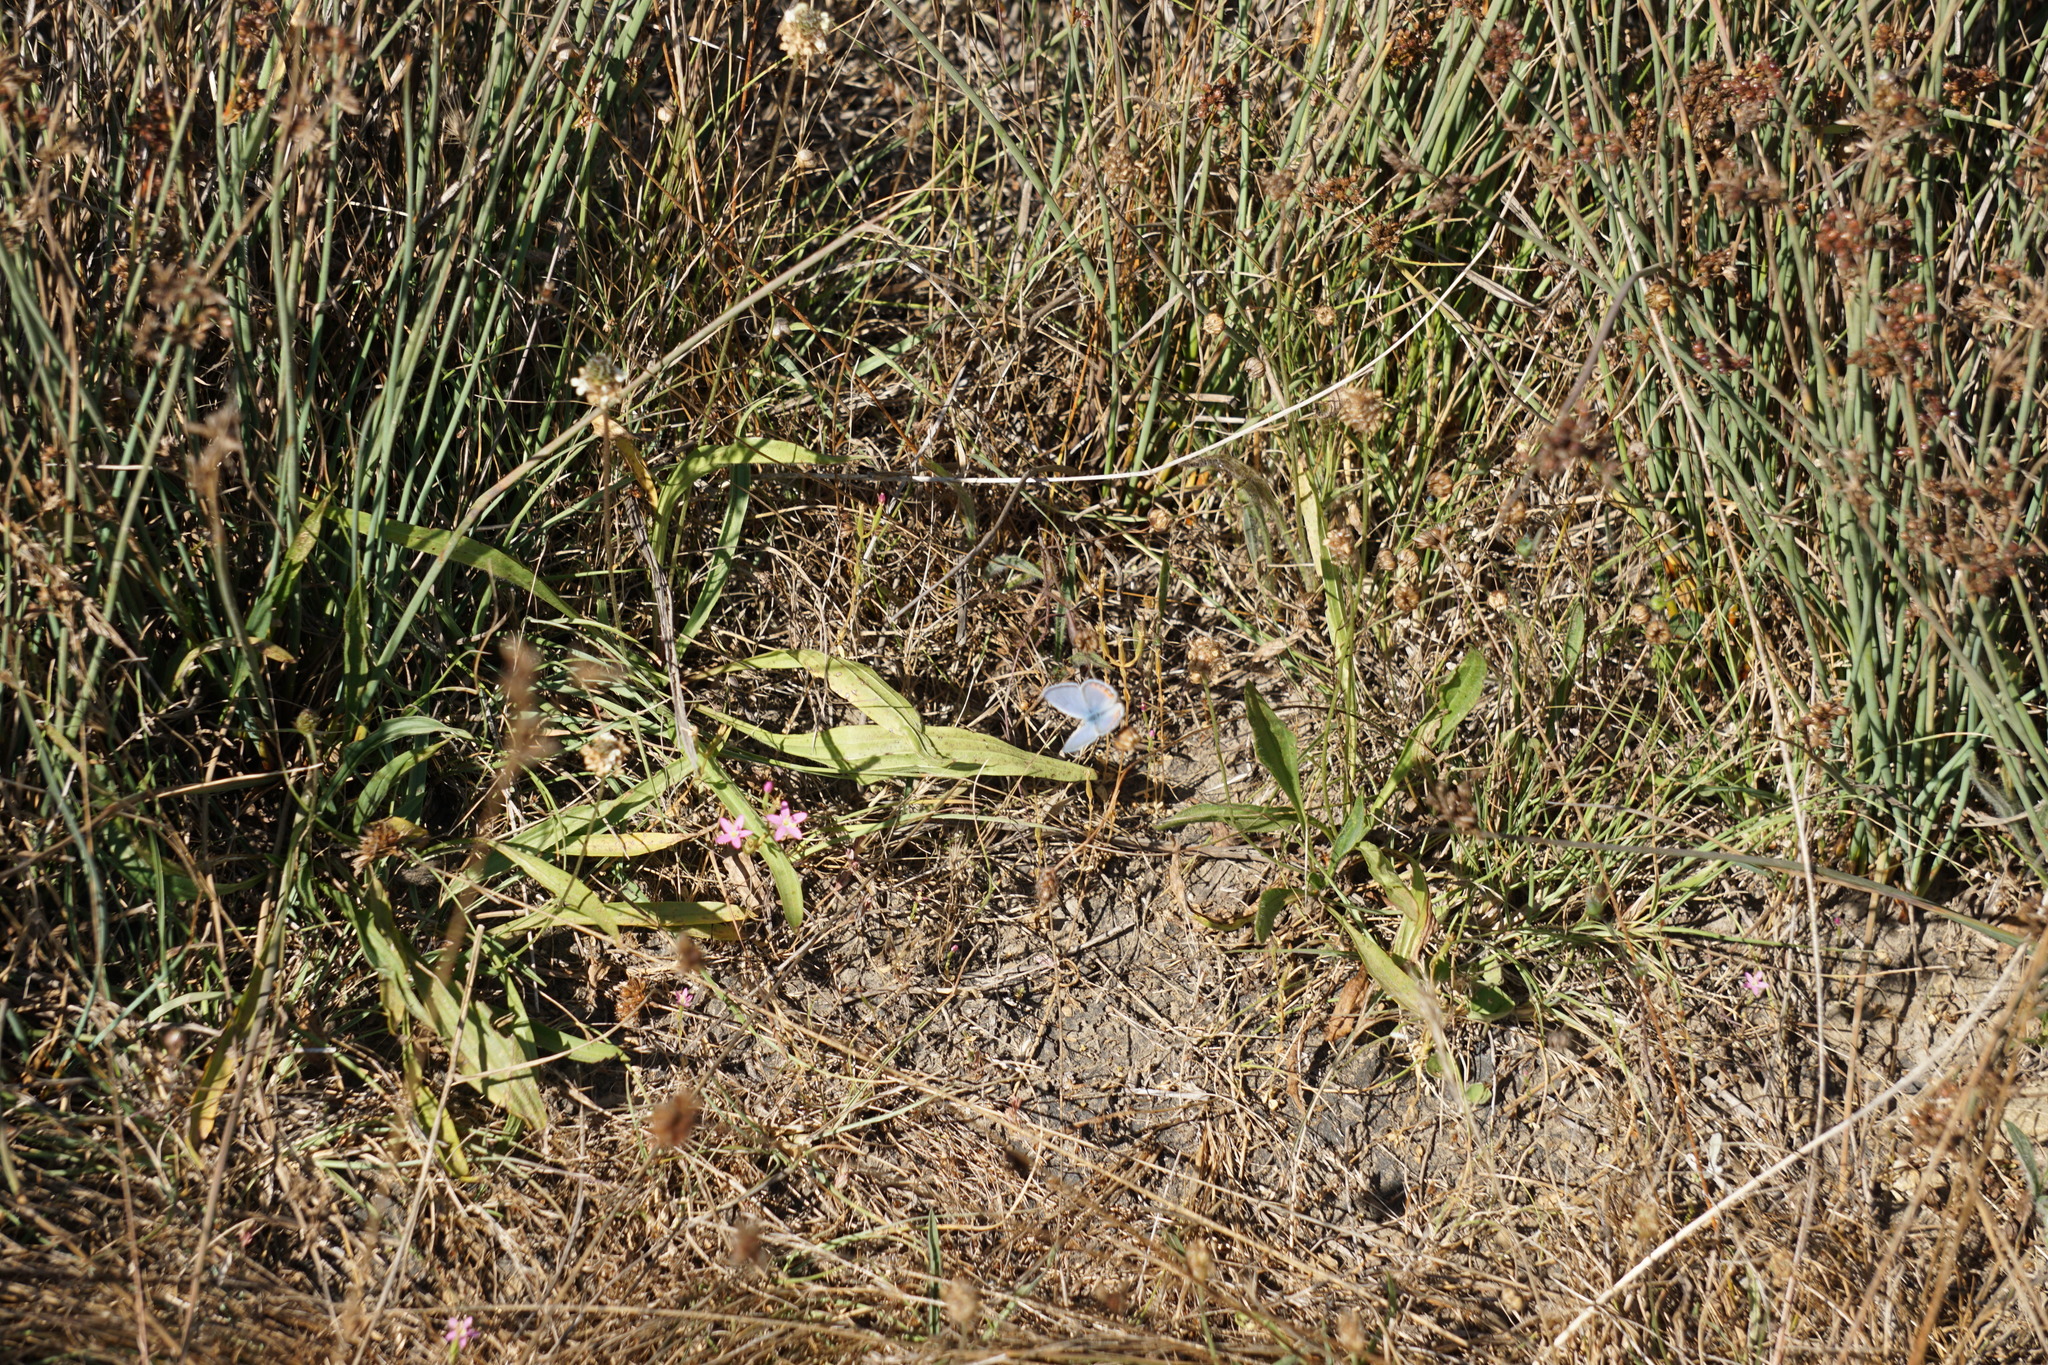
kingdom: Animalia
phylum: Arthropoda
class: Insecta
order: Lepidoptera
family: Lycaenidae
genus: Icaricia
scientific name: Icaricia acmon
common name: Acmon blue
